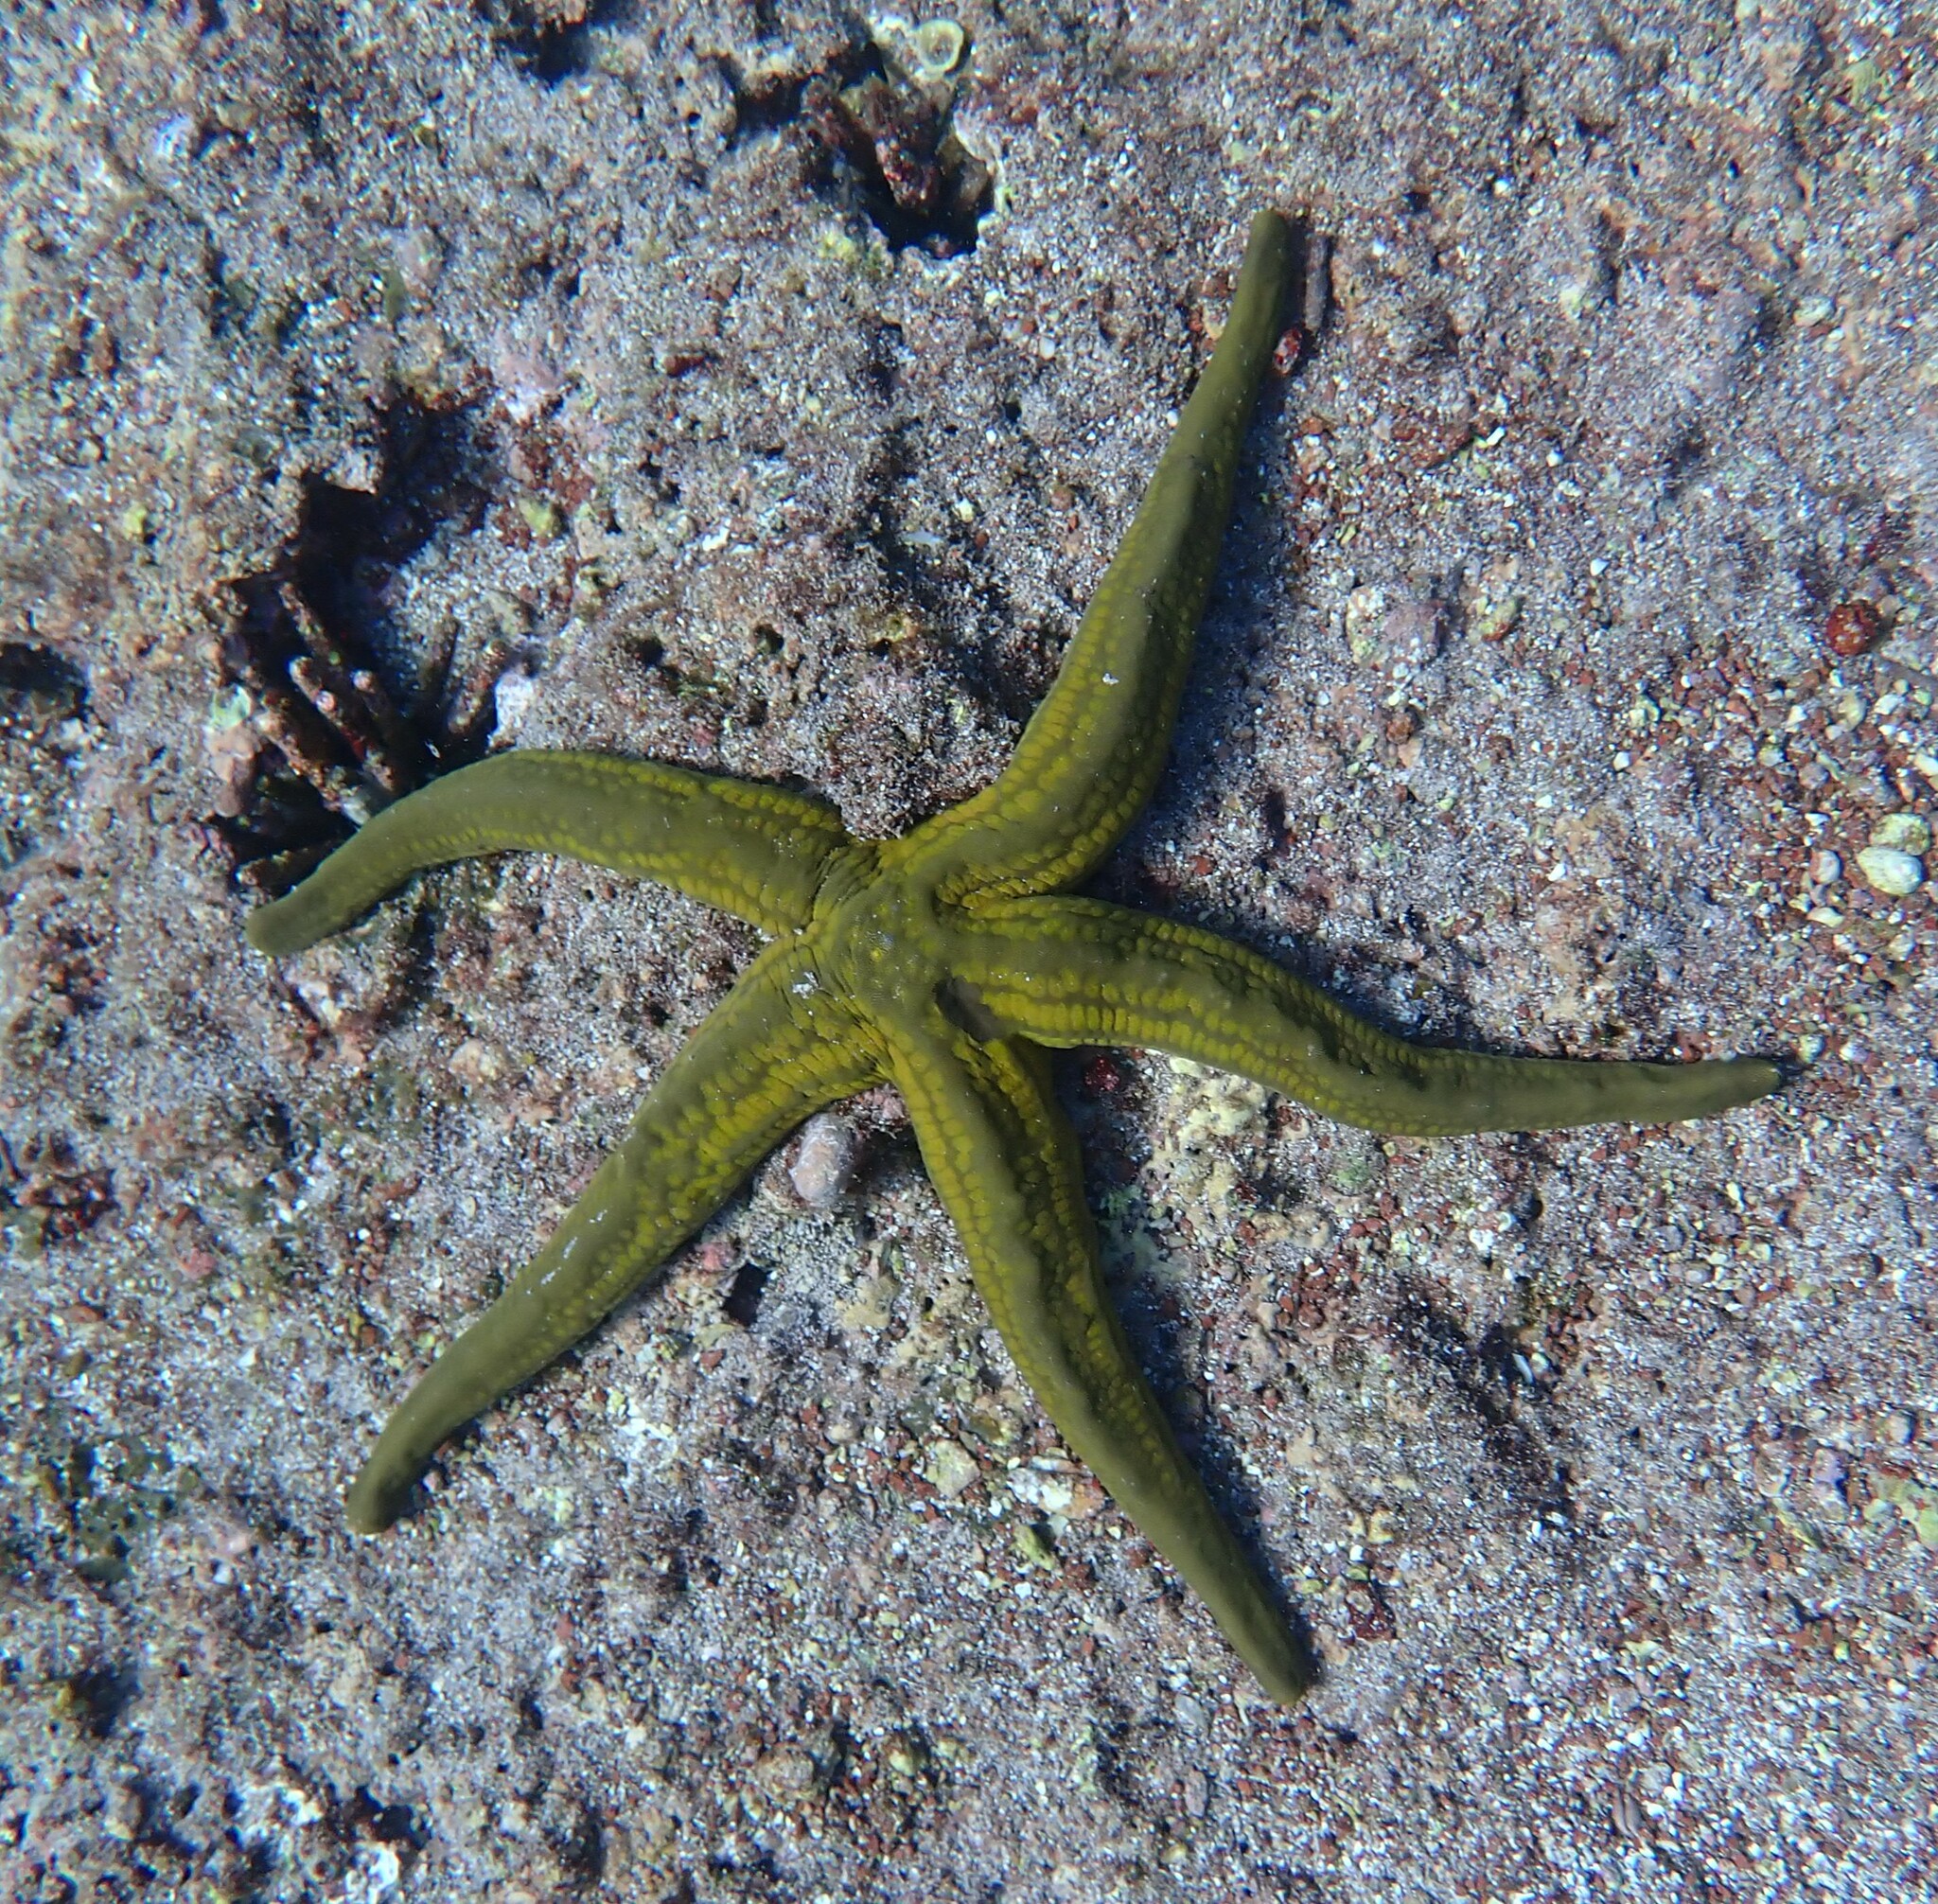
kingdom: Animalia
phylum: Echinodermata
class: Asteroidea
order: Valvatida
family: Ophidiasteridae
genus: Pharia
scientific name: Pharia pyramidata
